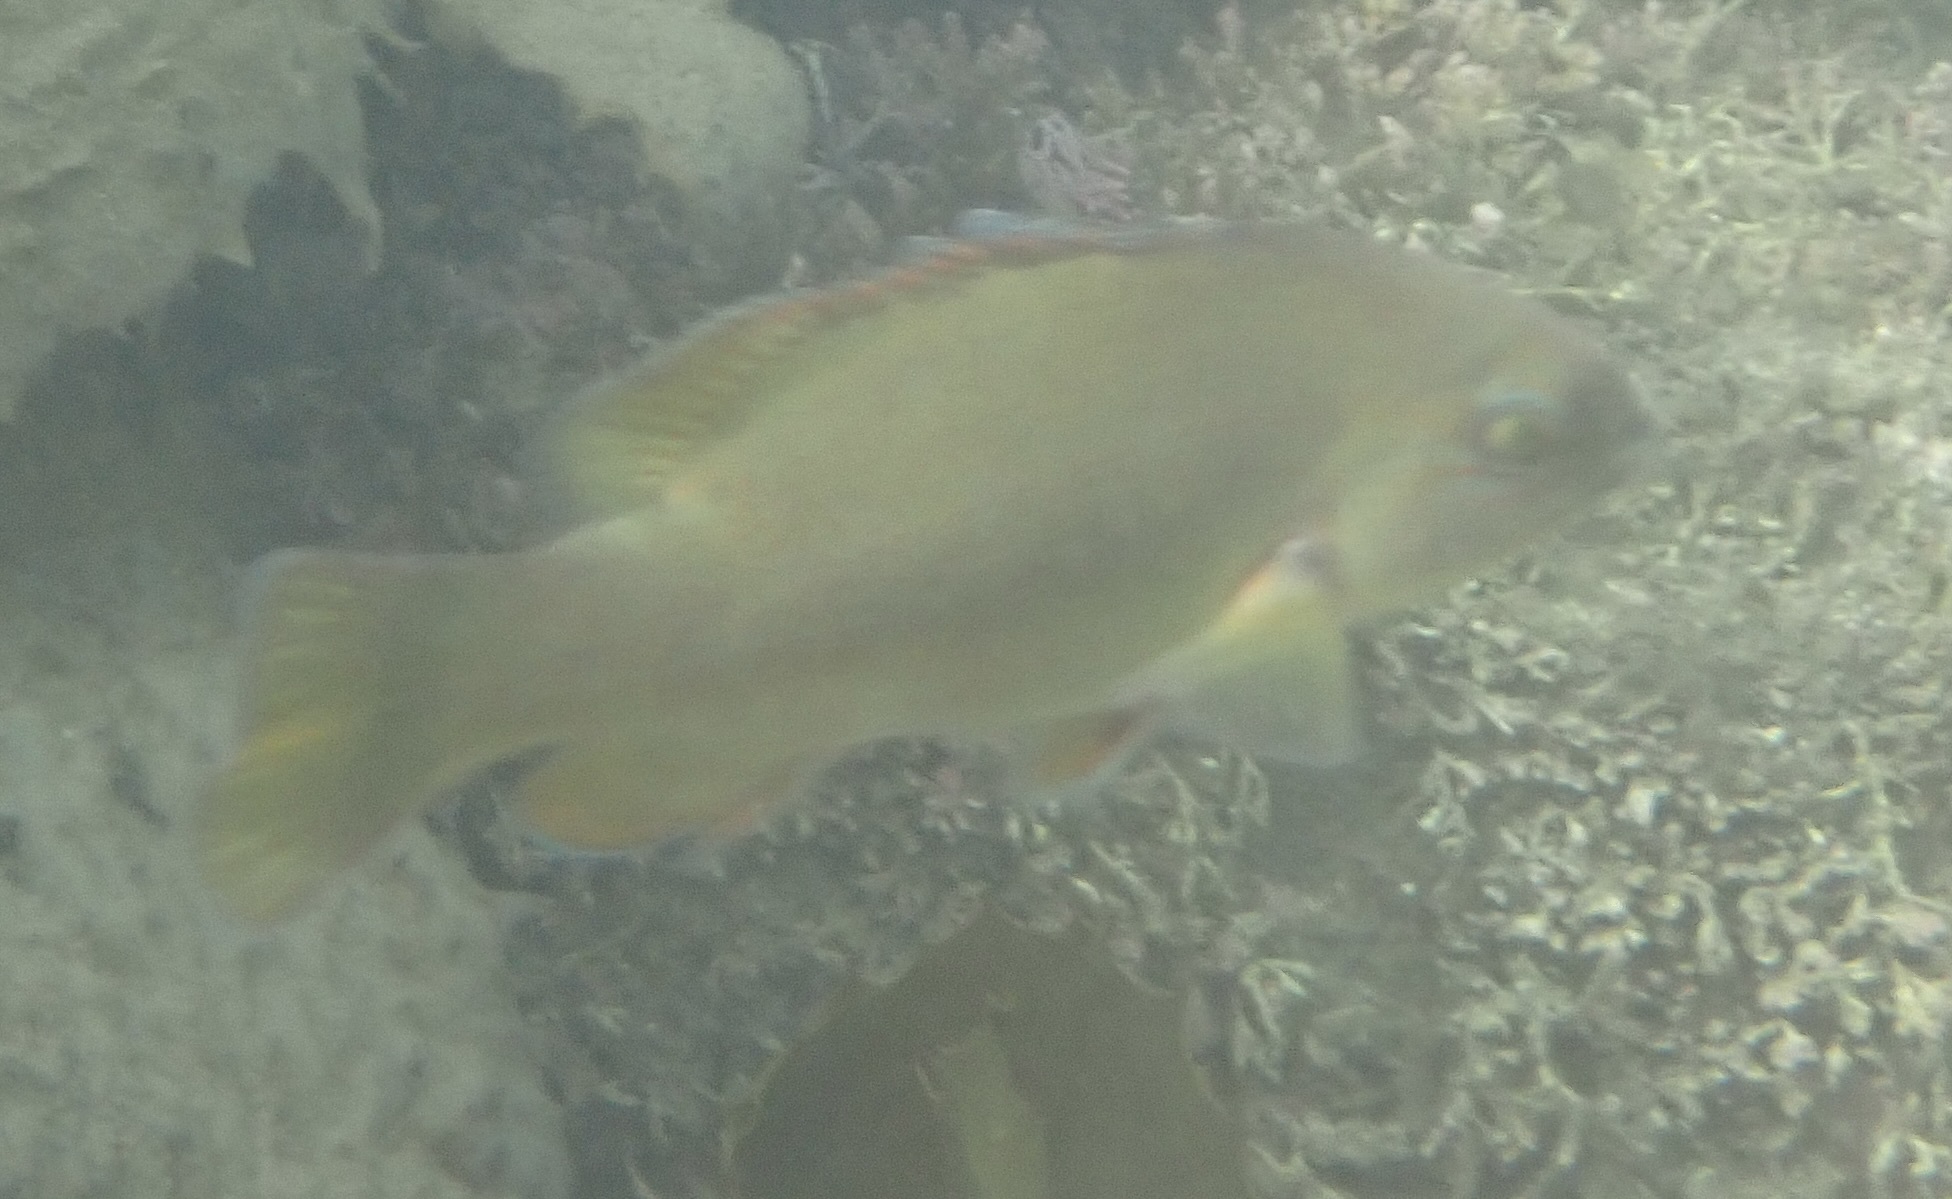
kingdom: Animalia
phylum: Chordata
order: Perciformes
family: Labridae
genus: Achoerodus
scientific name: Achoerodus viridis
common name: Brown groper
